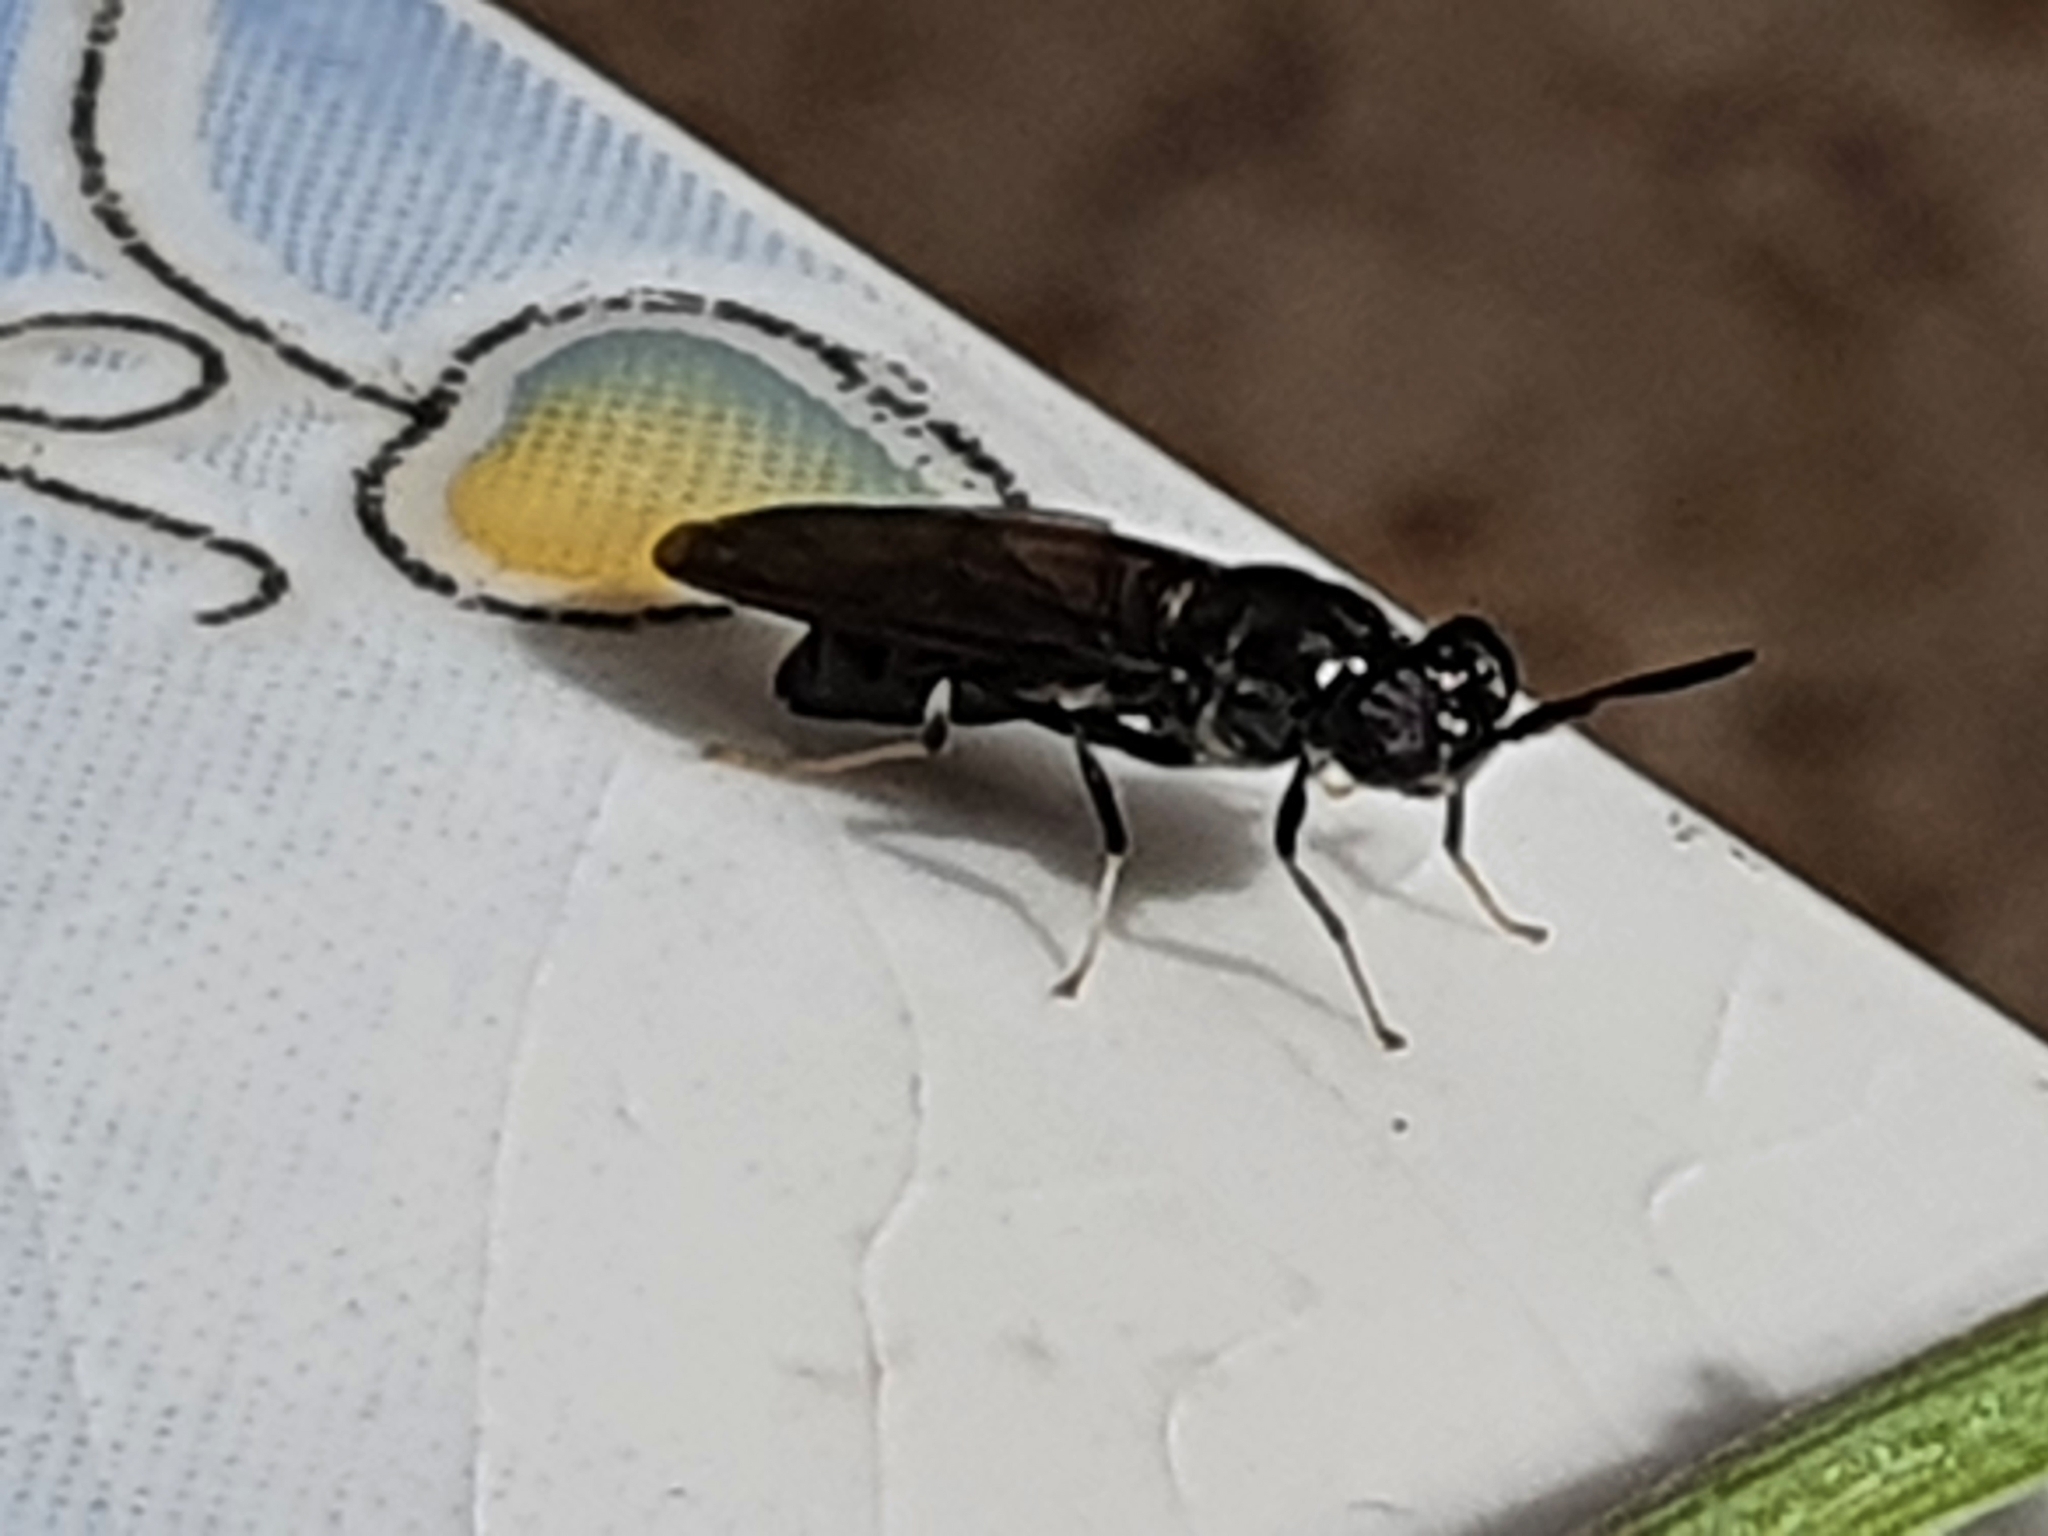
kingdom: Animalia
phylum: Arthropoda
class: Insecta
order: Diptera
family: Stratiomyidae
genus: Hermetia
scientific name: Hermetia illucens
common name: Black soldier fly
